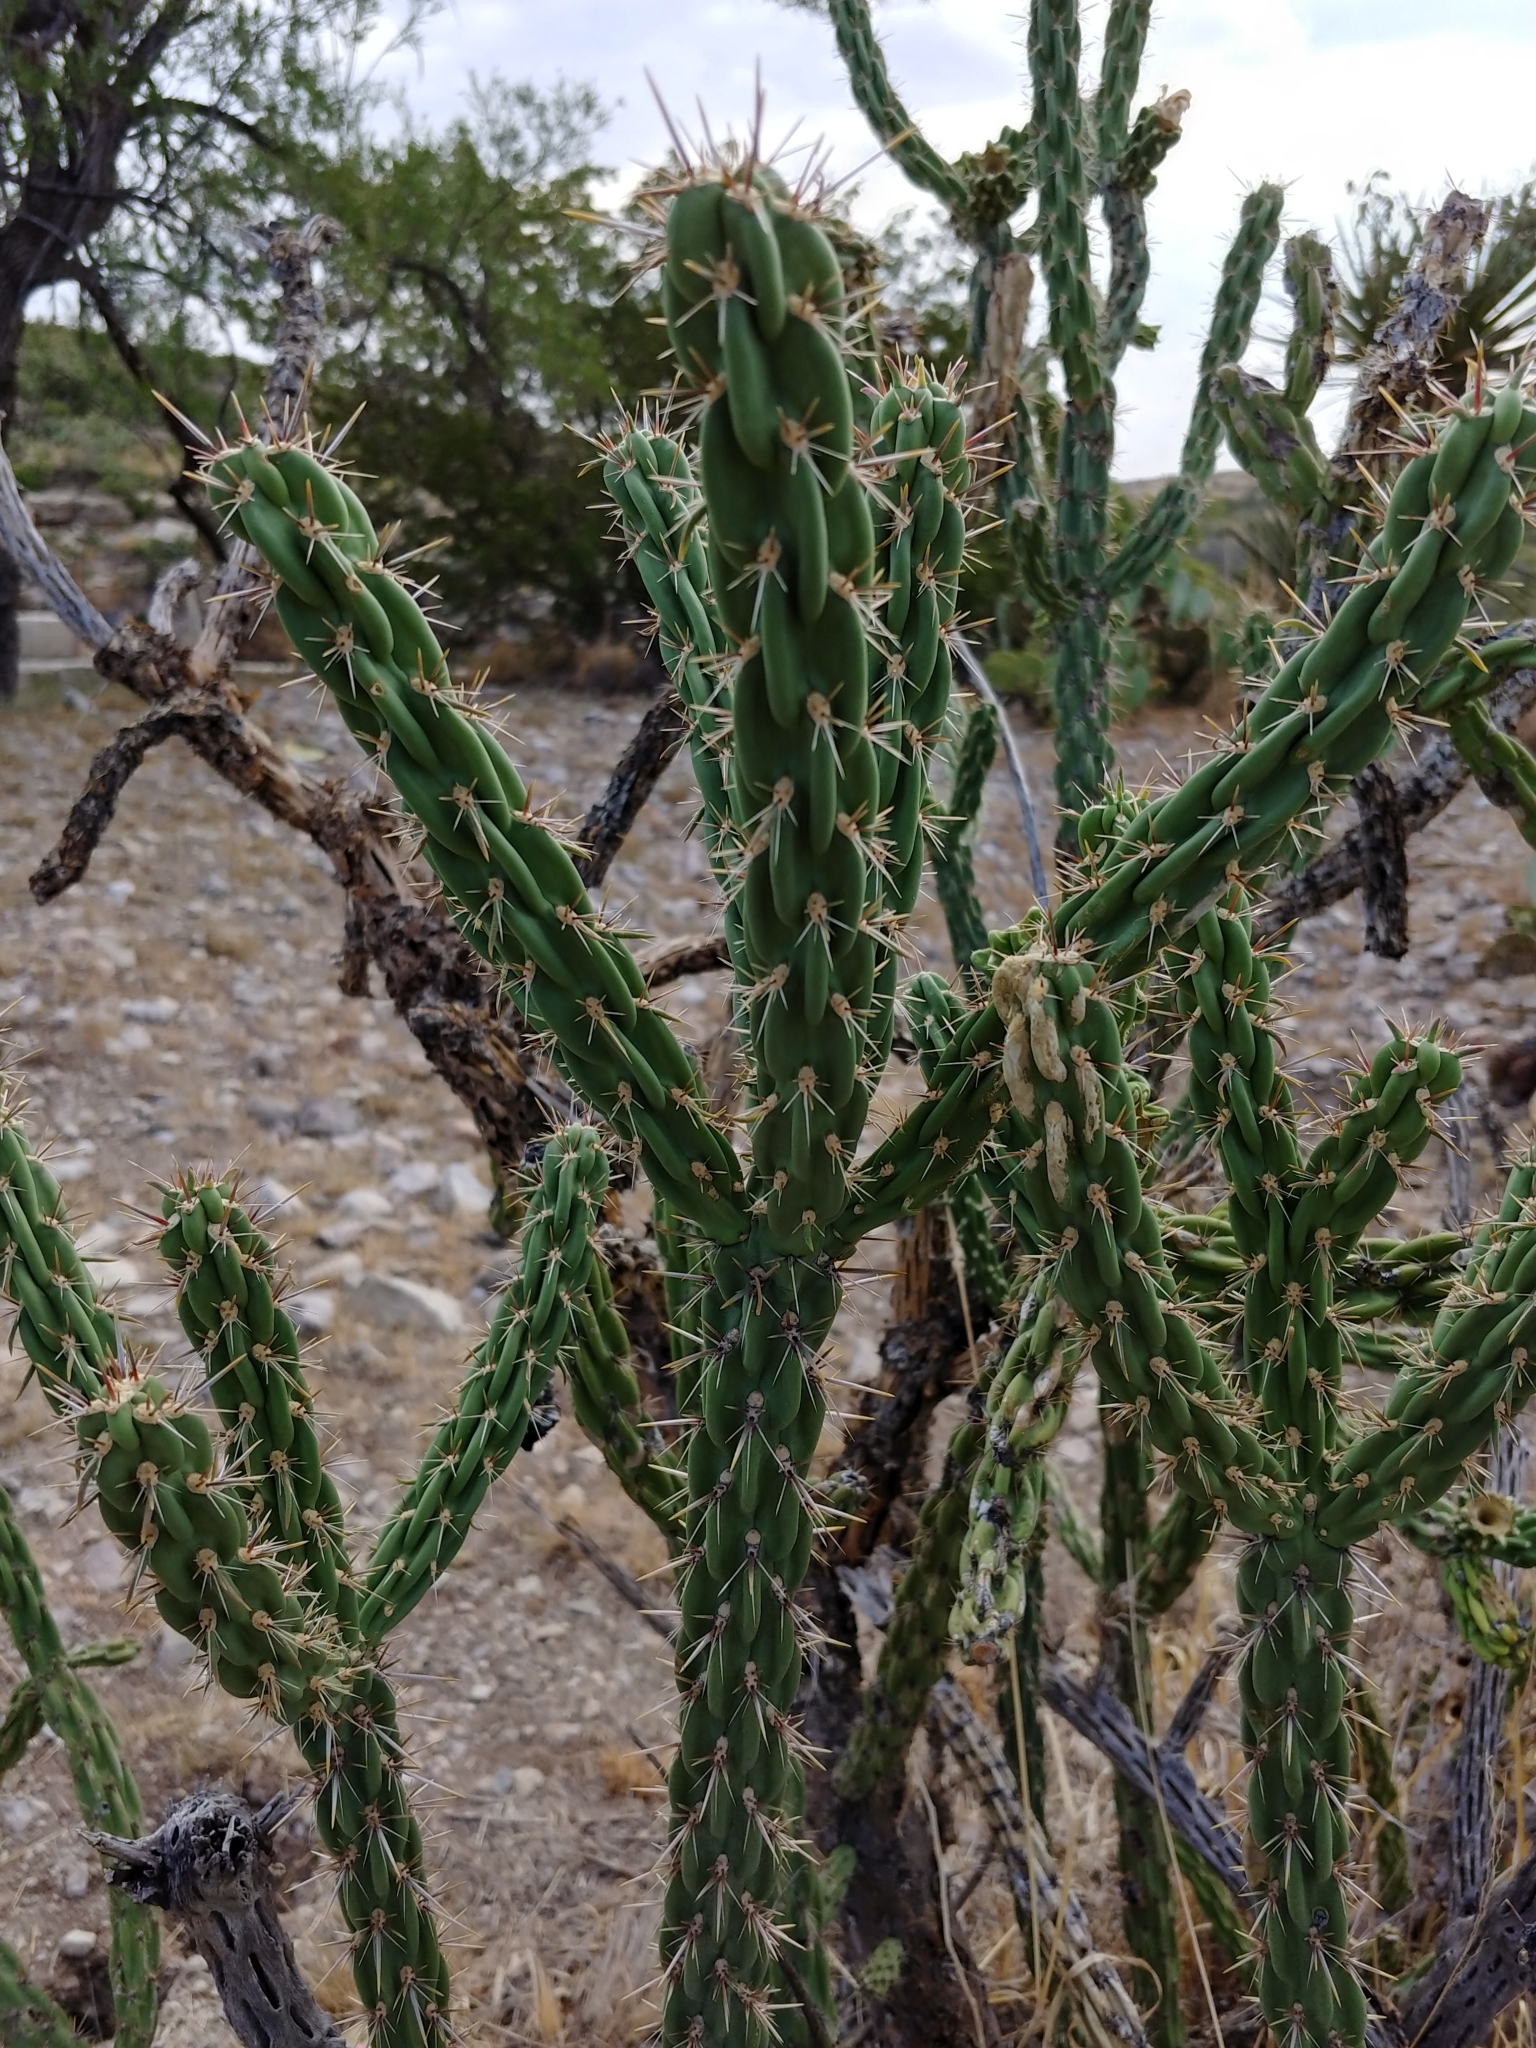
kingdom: Plantae
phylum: Tracheophyta
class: Magnoliopsida
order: Caryophyllales
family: Cactaceae
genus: Cylindropuntia
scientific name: Cylindropuntia imbricata
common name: Candelabrum cactus
